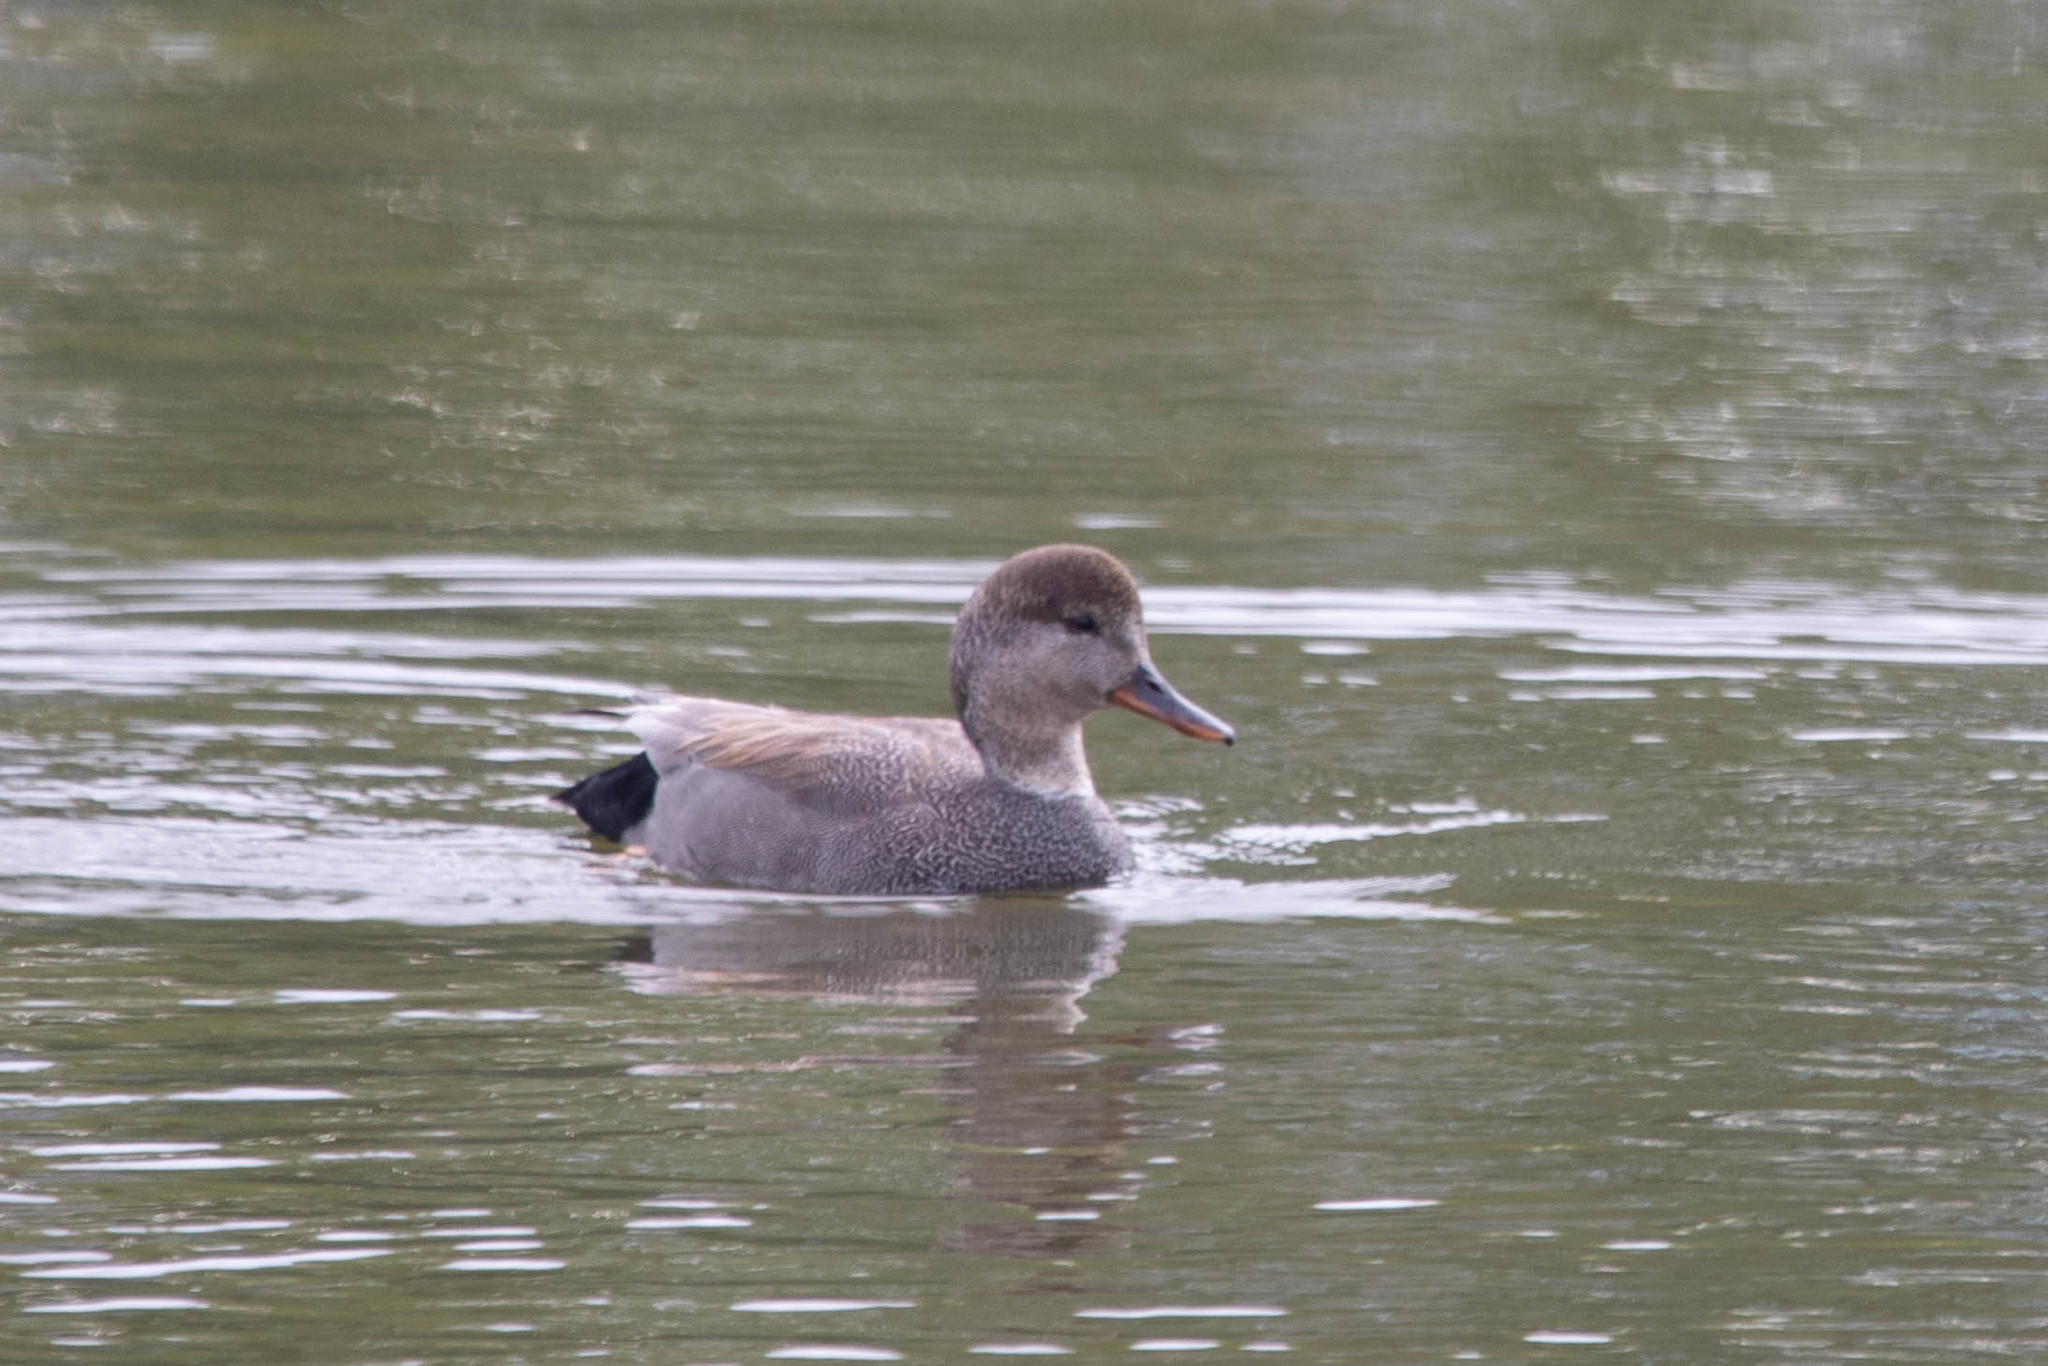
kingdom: Animalia
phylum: Chordata
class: Aves
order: Anseriformes
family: Anatidae
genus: Mareca
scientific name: Mareca strepera
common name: Gadwall
